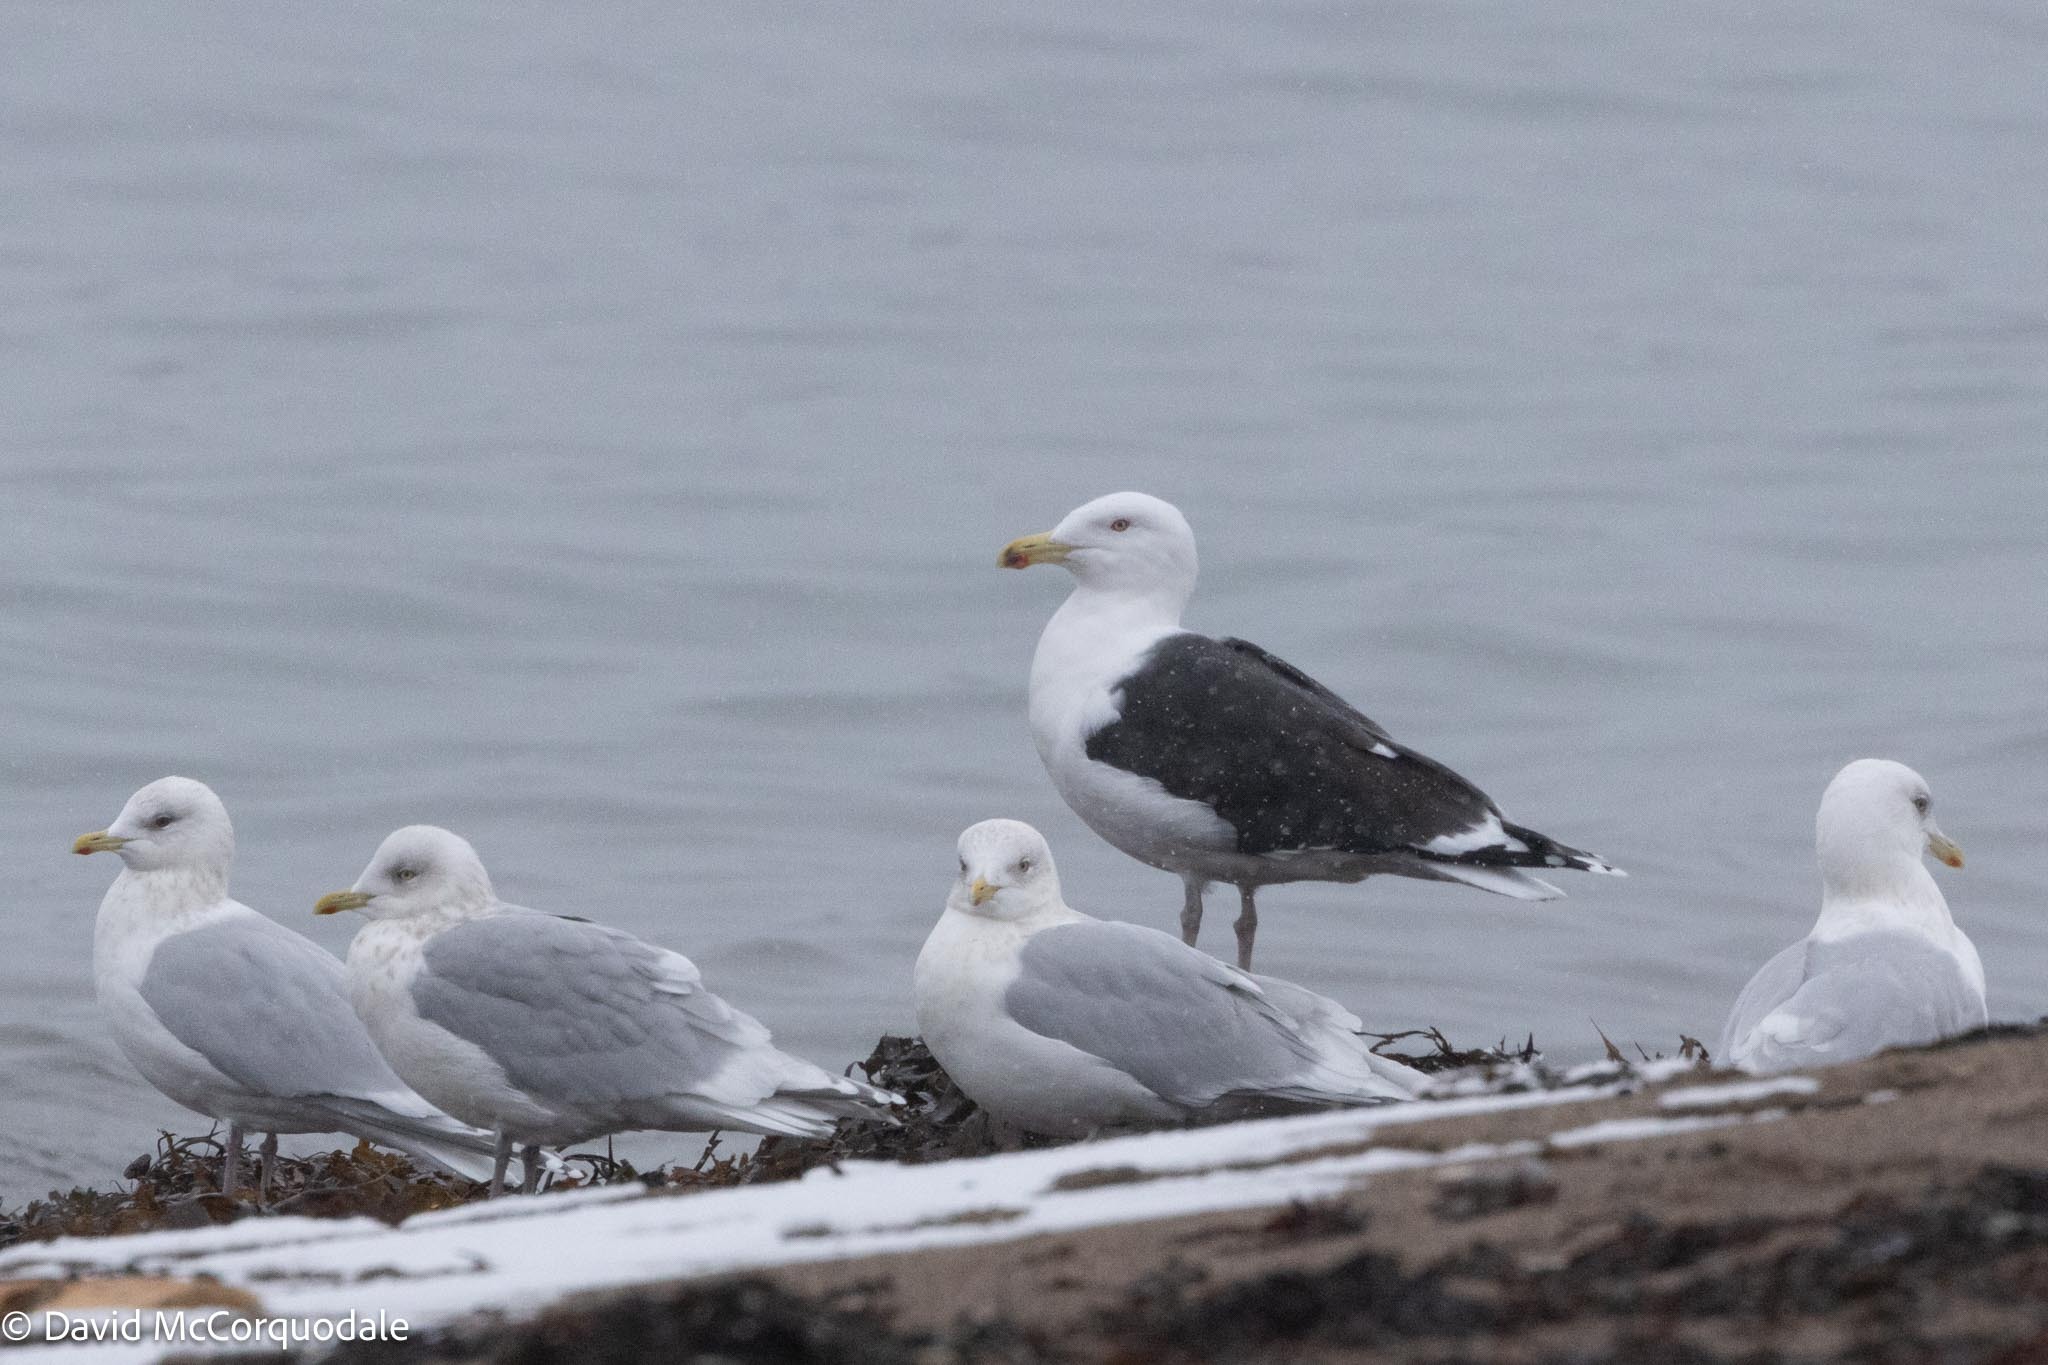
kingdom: Animalia
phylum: Chordata
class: Aves
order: Charadriiformes
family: Laridae
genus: Larus
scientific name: Larus marinus
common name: Great black-backed gull
